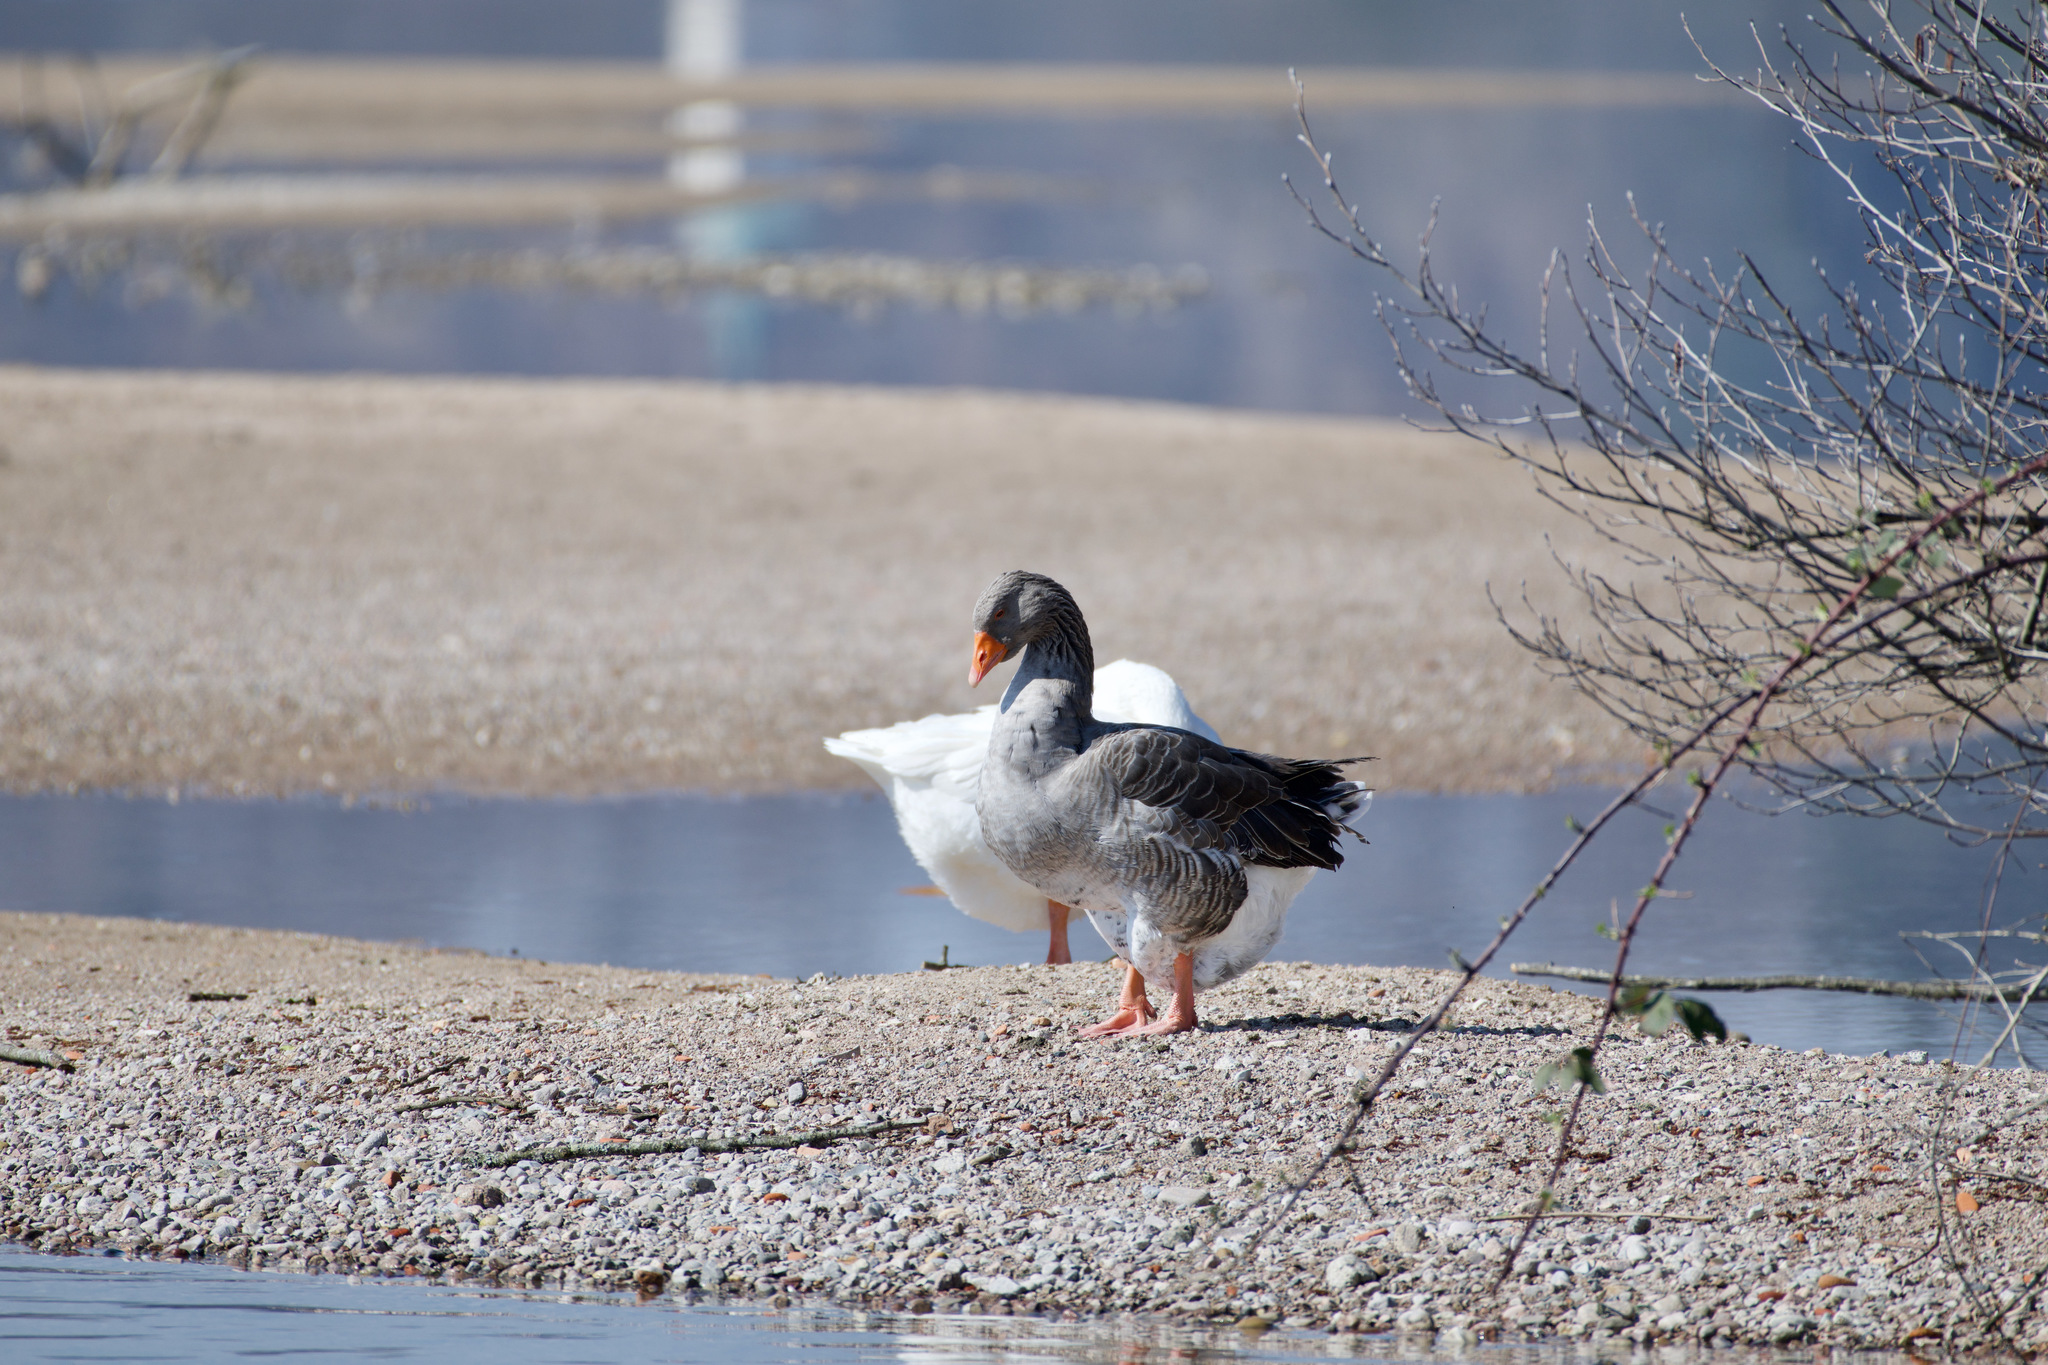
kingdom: Animalia
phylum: Chordata
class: Aves
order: Anseriformes
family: Anatidae
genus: Anser
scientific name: Anser anser
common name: Greylag goose
